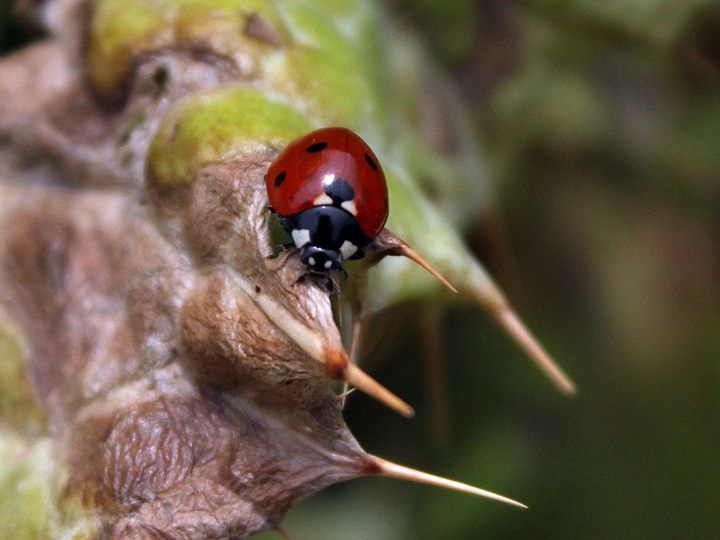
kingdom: Animalia
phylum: Arthropoda
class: Insecta
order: Coleoptera
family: Coccinellidae
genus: Coccinella
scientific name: Coccinella septempunctata
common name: Sevenspotted lady beetle
